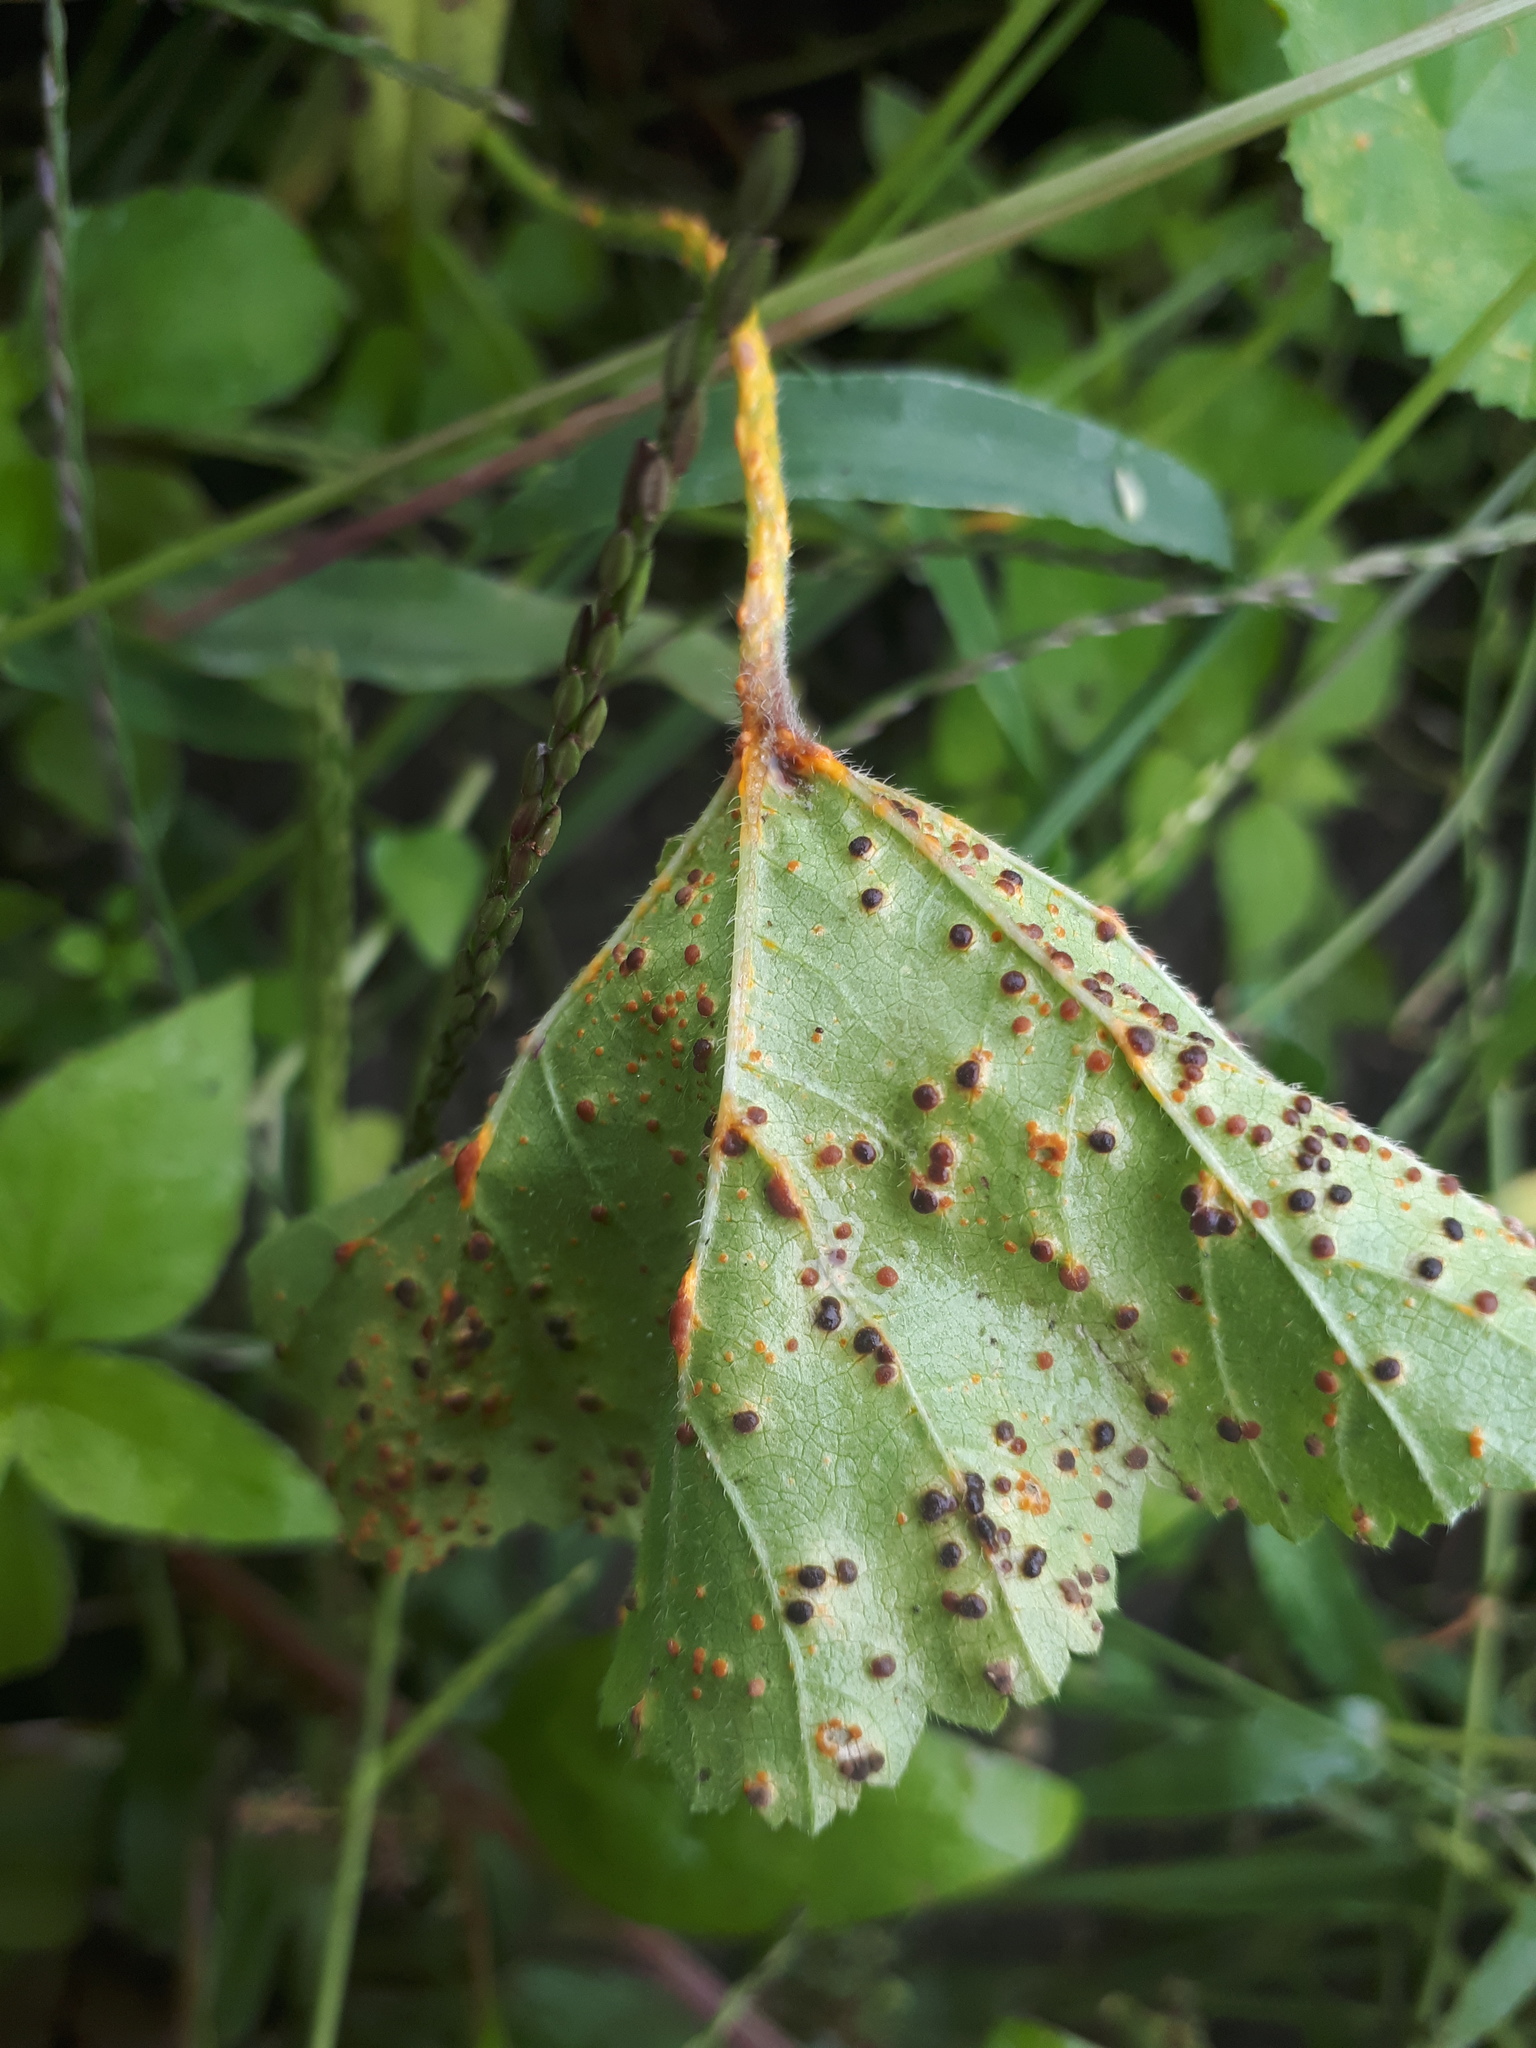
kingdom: Fungi
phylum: Basidiomycota
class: Pucciniomycetes
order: Pucciniales
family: Pucciniaceae
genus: Puccinia
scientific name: Puccinia malvacearum
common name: Hollyhock rust
